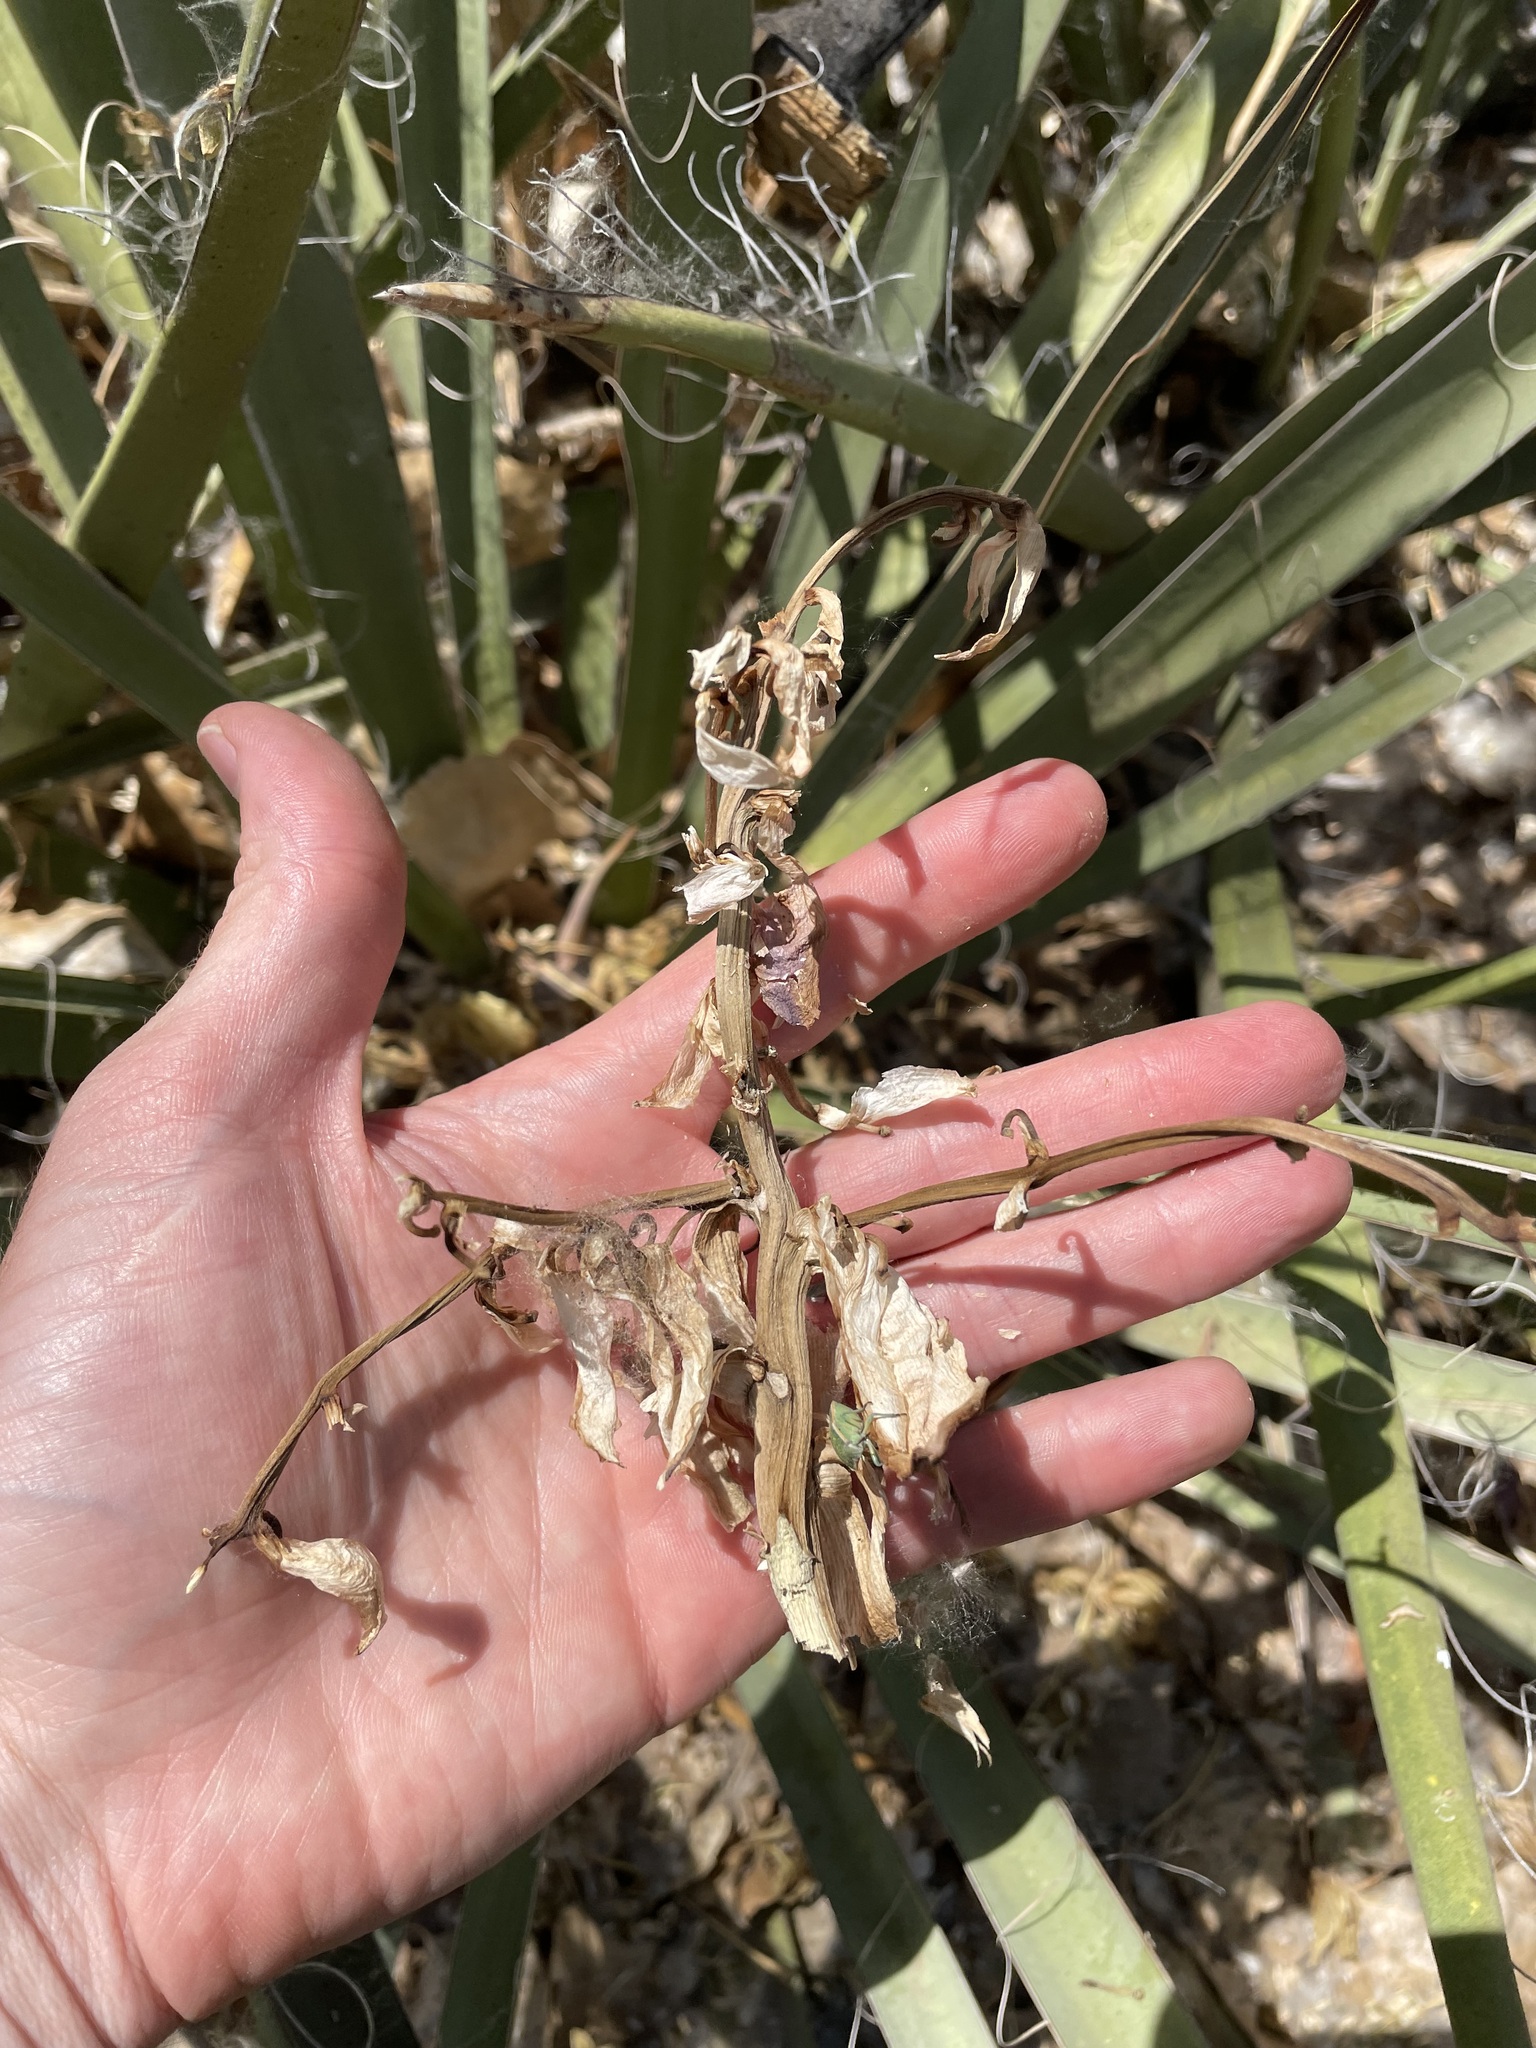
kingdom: Plantae
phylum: Tracheophyta
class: Liliopsida
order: Asparagales
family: Asparagaceae
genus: Yucca
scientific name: Yucca baccata
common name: Banana yucca
